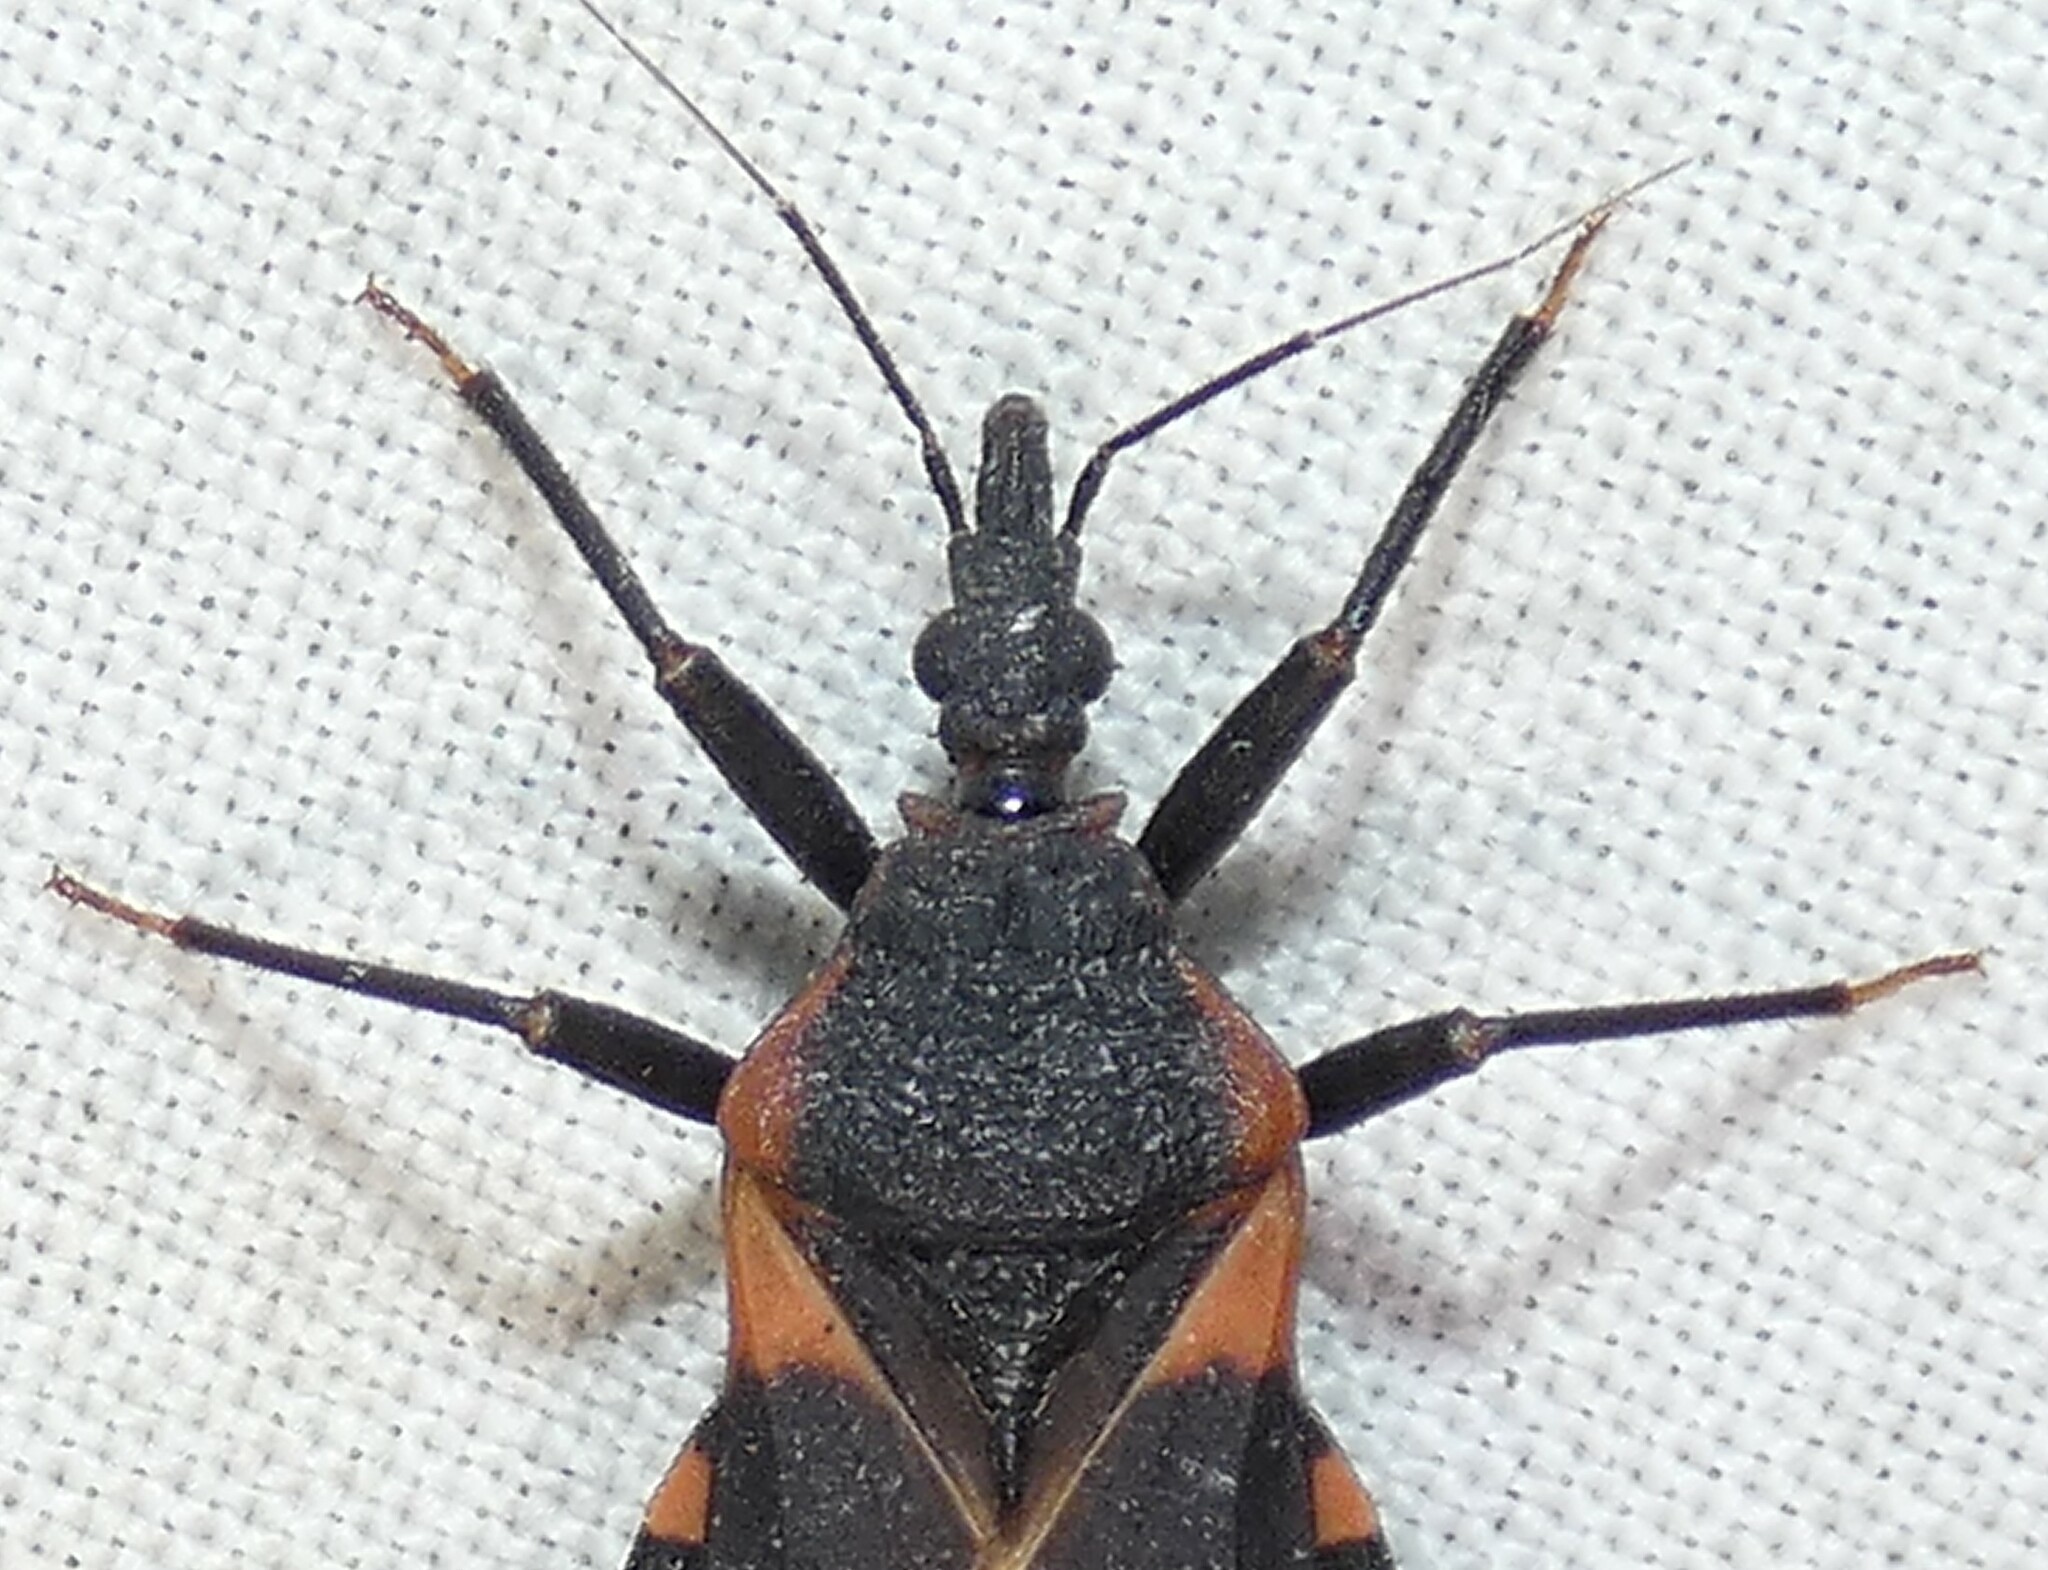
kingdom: Animalia
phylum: Arthropoda
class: Insecta
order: Hemiptera
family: Reduviidae
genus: Triatoma
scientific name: Triatoma sanguisuga
